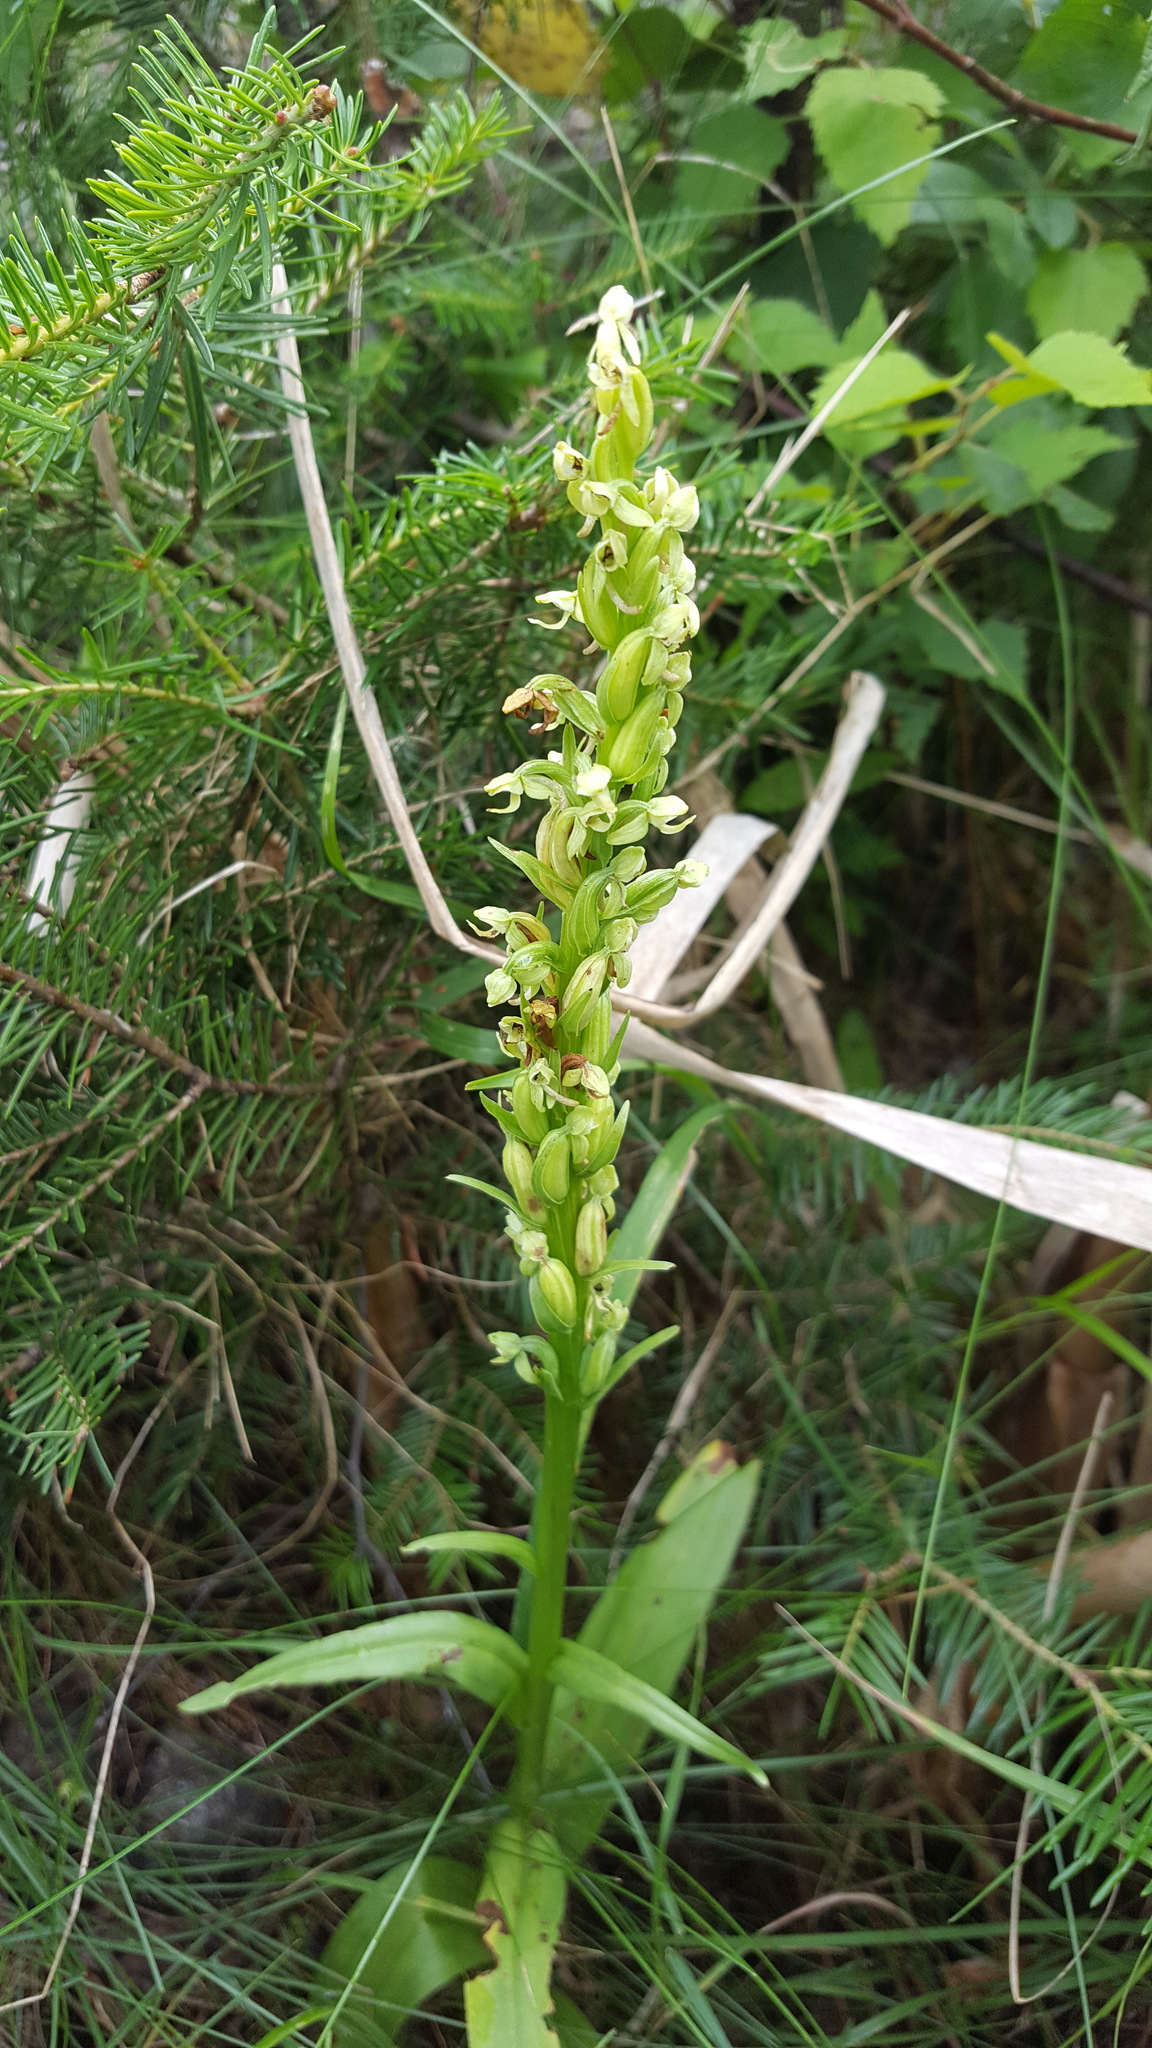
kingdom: Plantae
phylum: Tracheophyta
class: Liliopsida
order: Asparagales
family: Orchidaceae
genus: Platanthera
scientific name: Platanthera huronensis
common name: Fragrant green orchid
